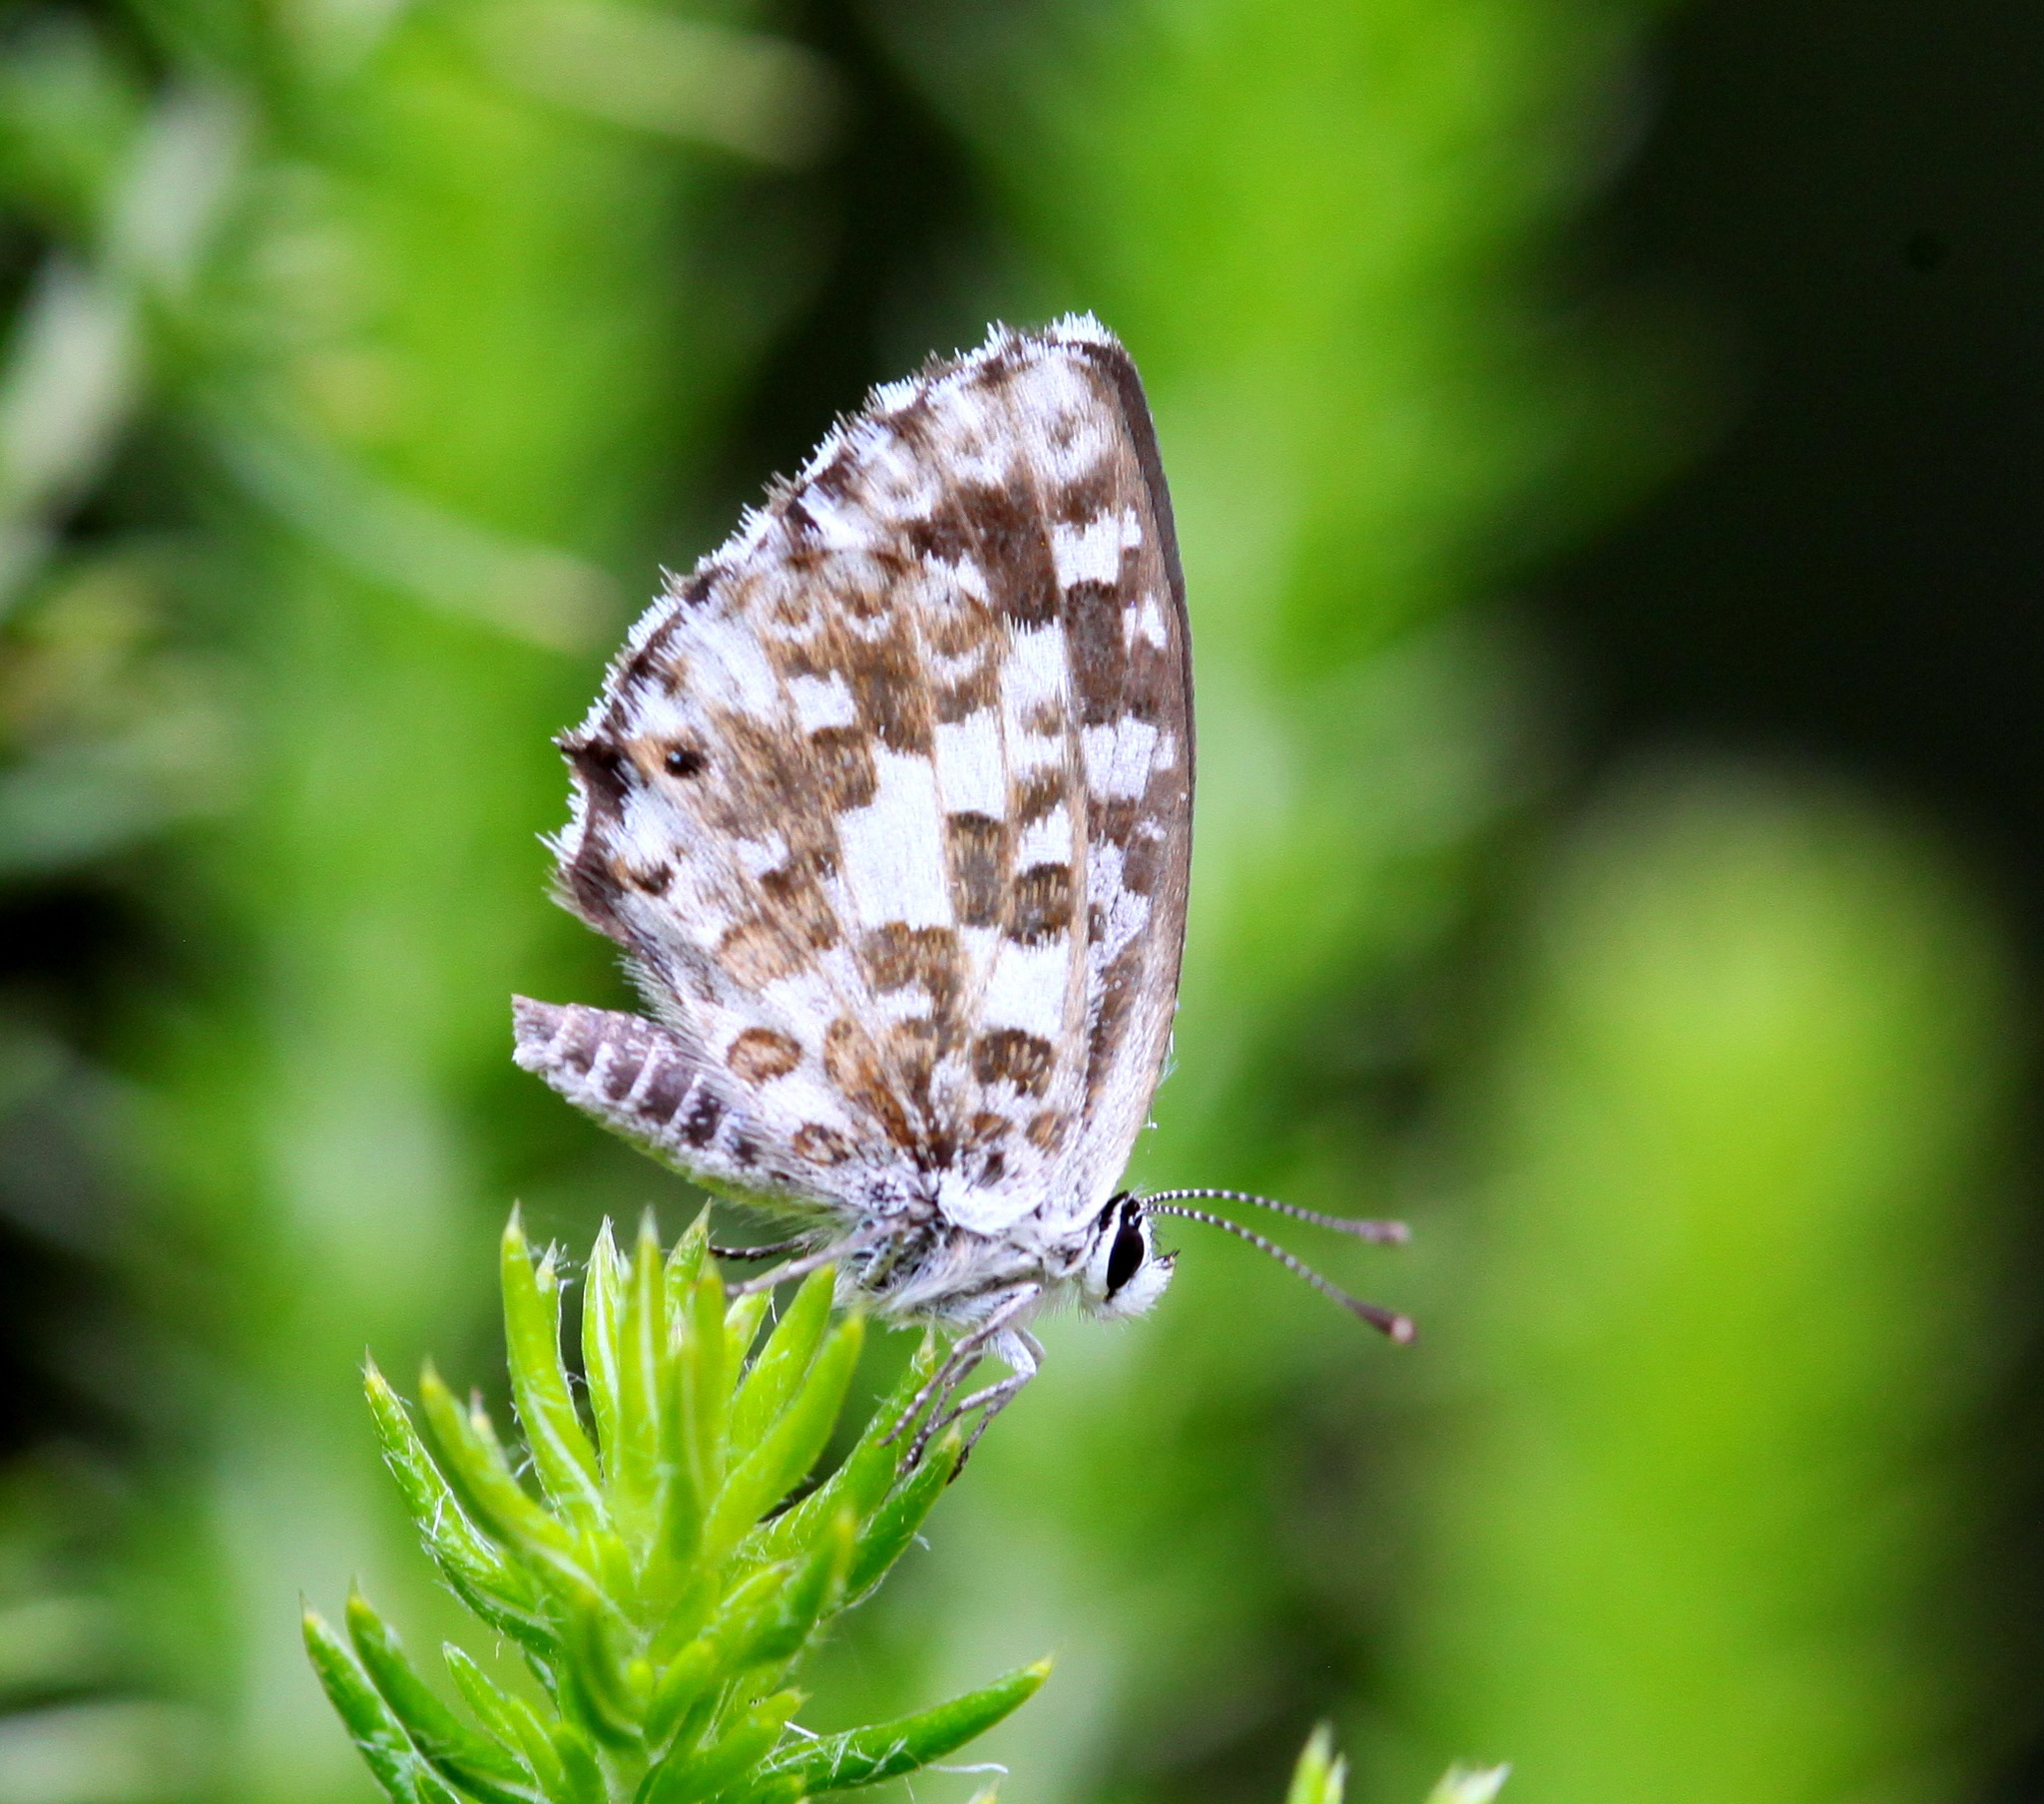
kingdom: Animalia
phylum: Arthropoda
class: Insecta
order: Lepidoptera
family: Lycaenidae
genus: Tarucus
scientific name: Tarucus thespis
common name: Vivid dotted blue
